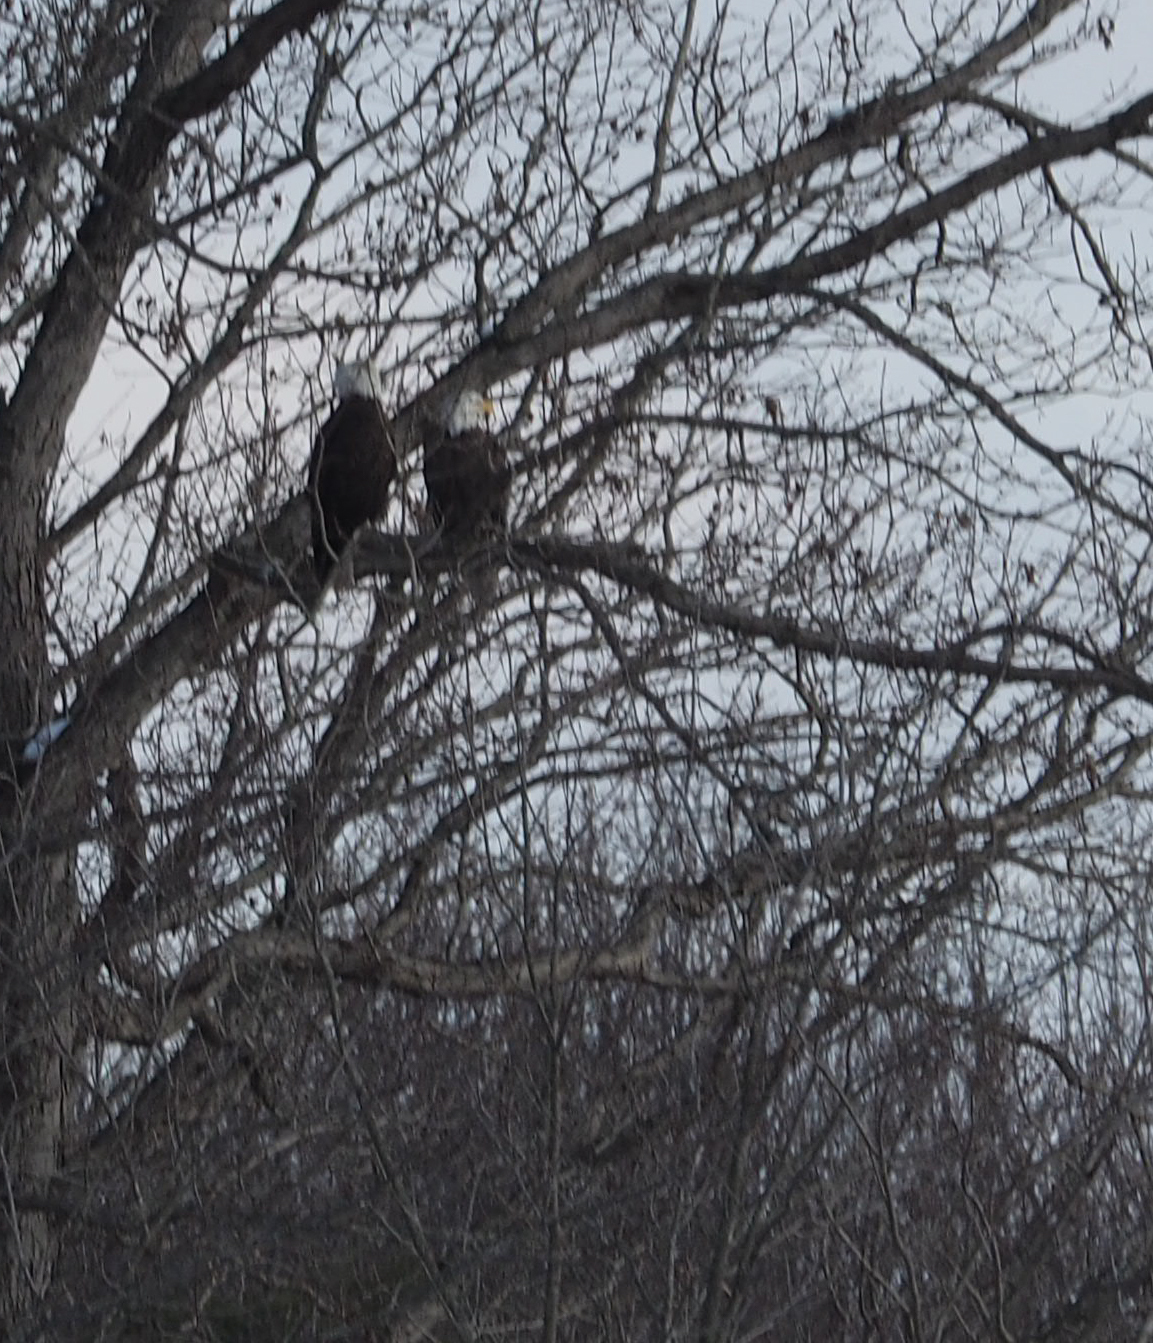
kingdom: Animalia
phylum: Chordata
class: Aves
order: Accipitriformes
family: Accipitridae
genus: Haliaeetus
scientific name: Haliaeetus leucocephalus
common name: Bald eagle
